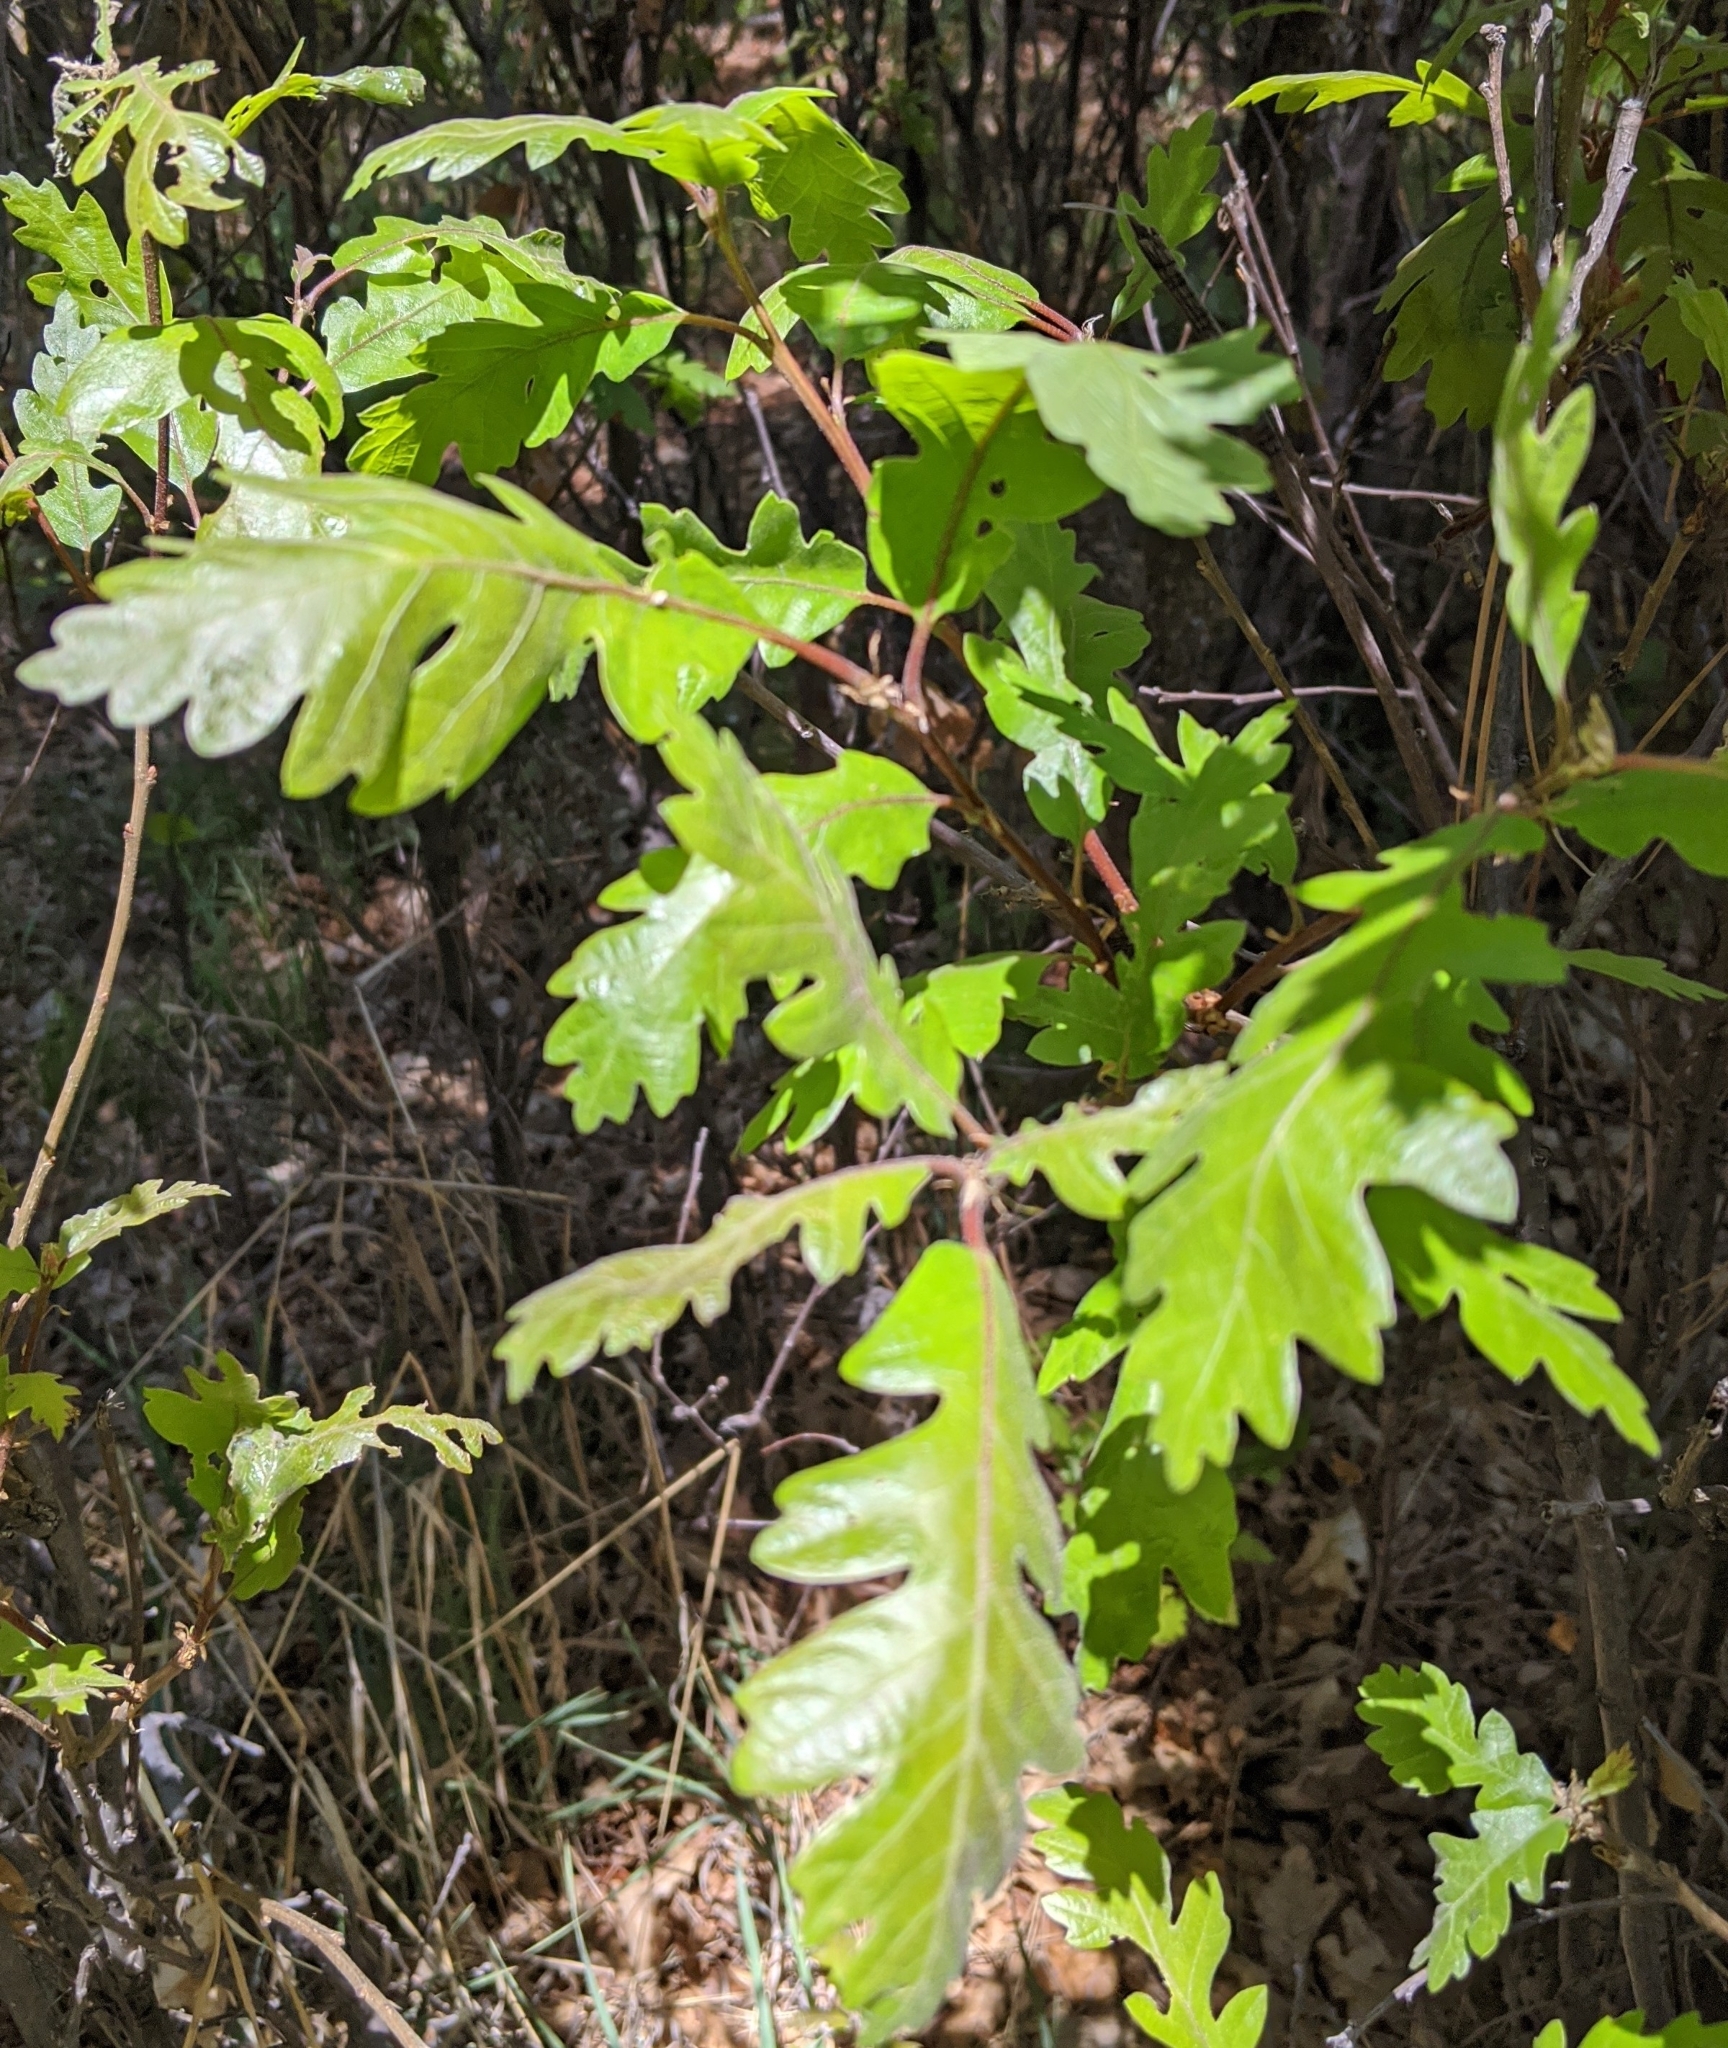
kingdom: Plantae
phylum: Tracheophyta
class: Magnoliopsida
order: Fagales
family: Fagaceae
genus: Quercus
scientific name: Quercus gambelii
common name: Gambel oak
